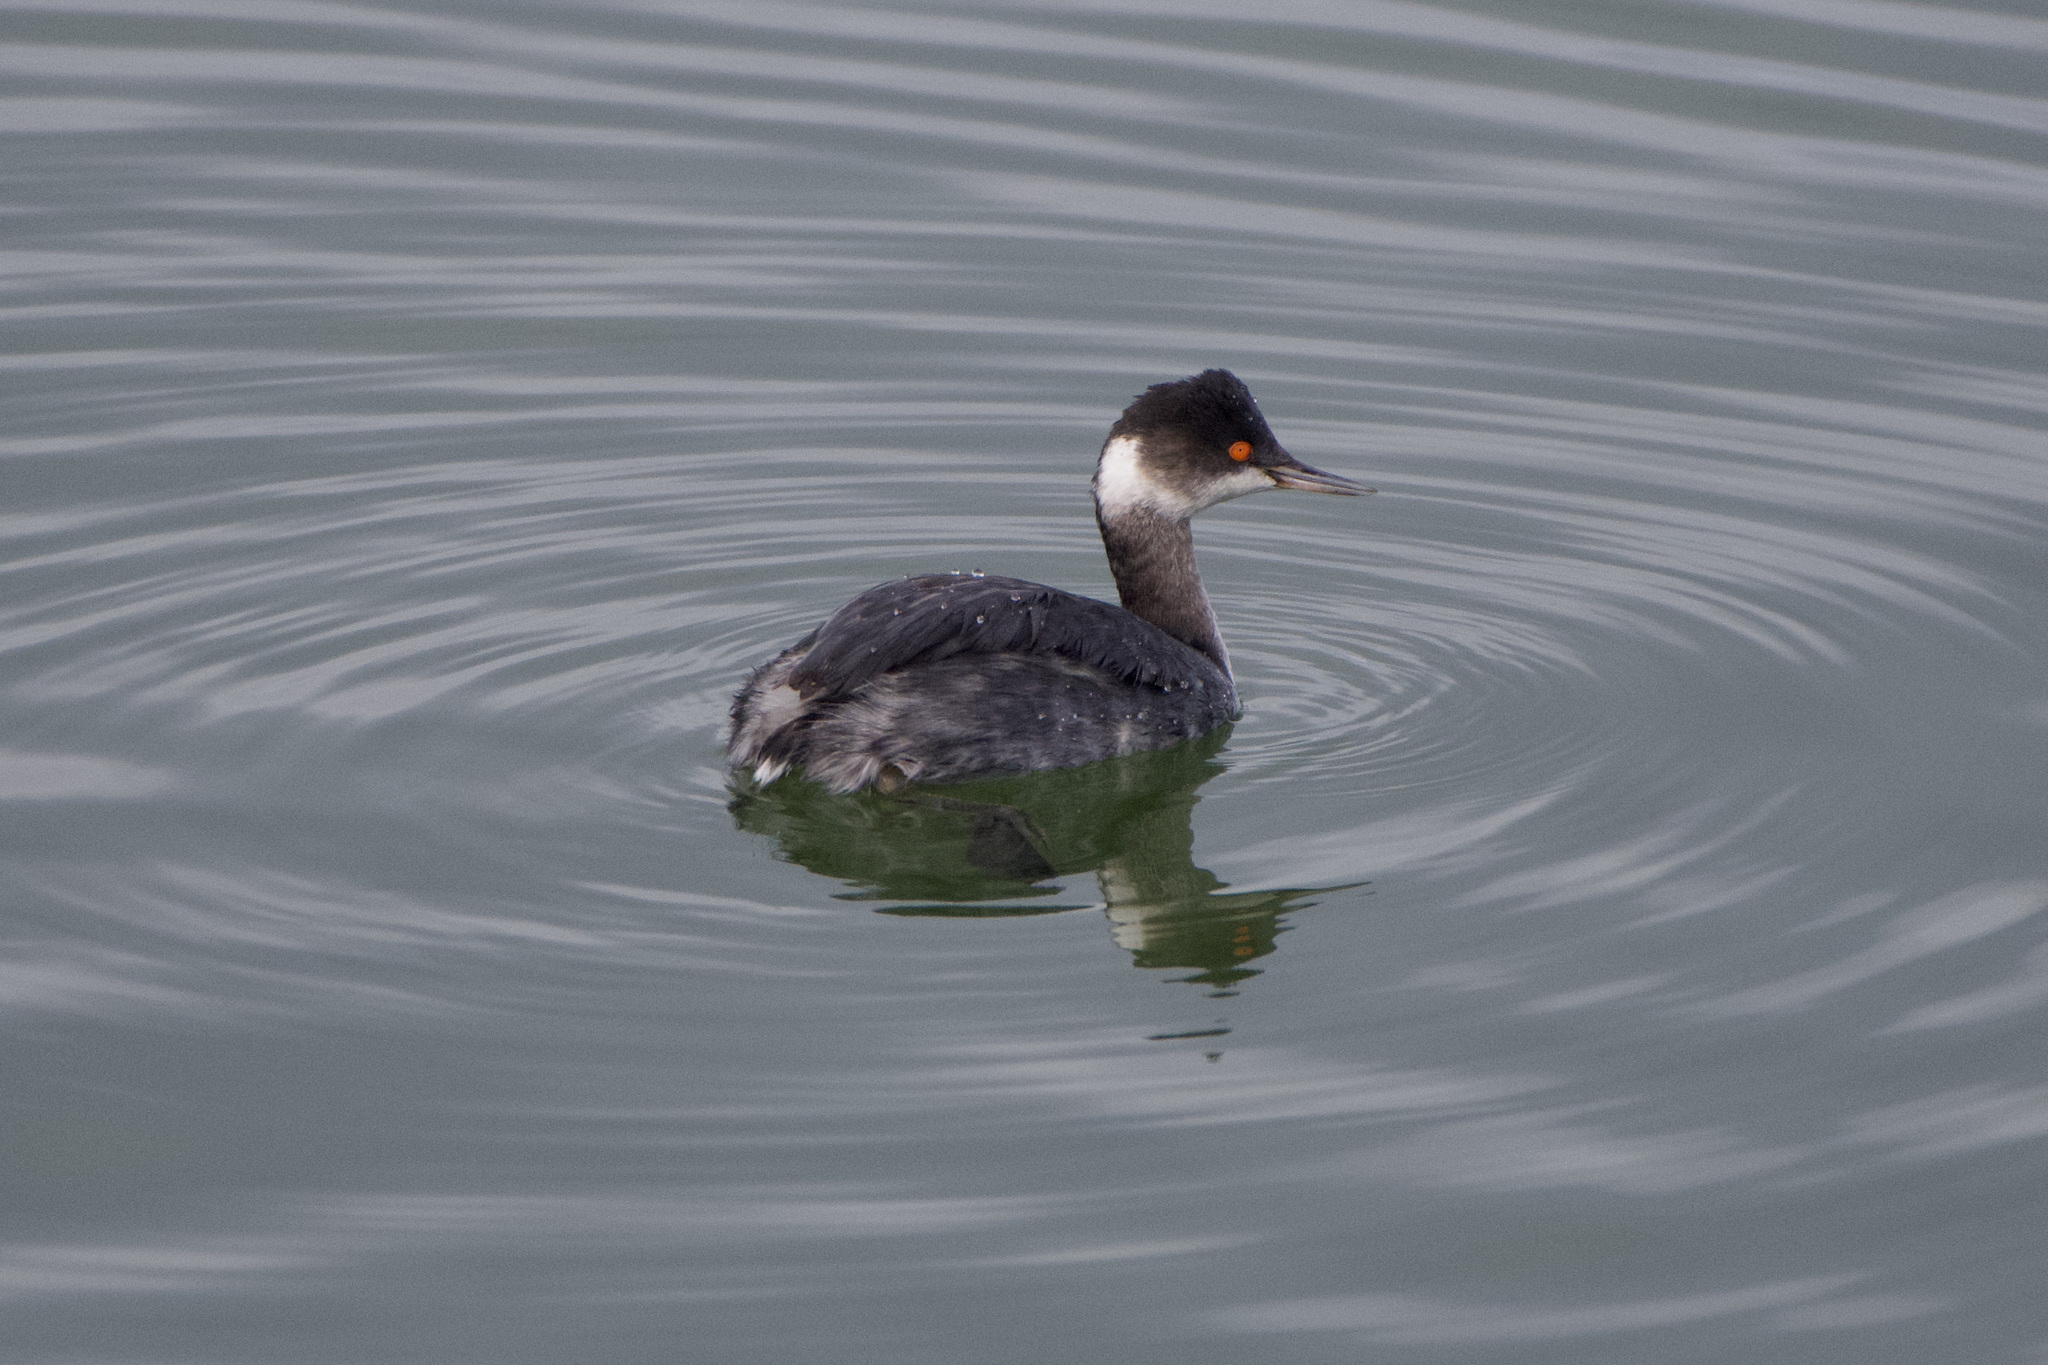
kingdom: Animalia
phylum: Chordata
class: Aves
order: Podicipediformes
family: Podicipedidae
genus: Podiceps
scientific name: Podiceps nigricollis
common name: Black-necked grebe
